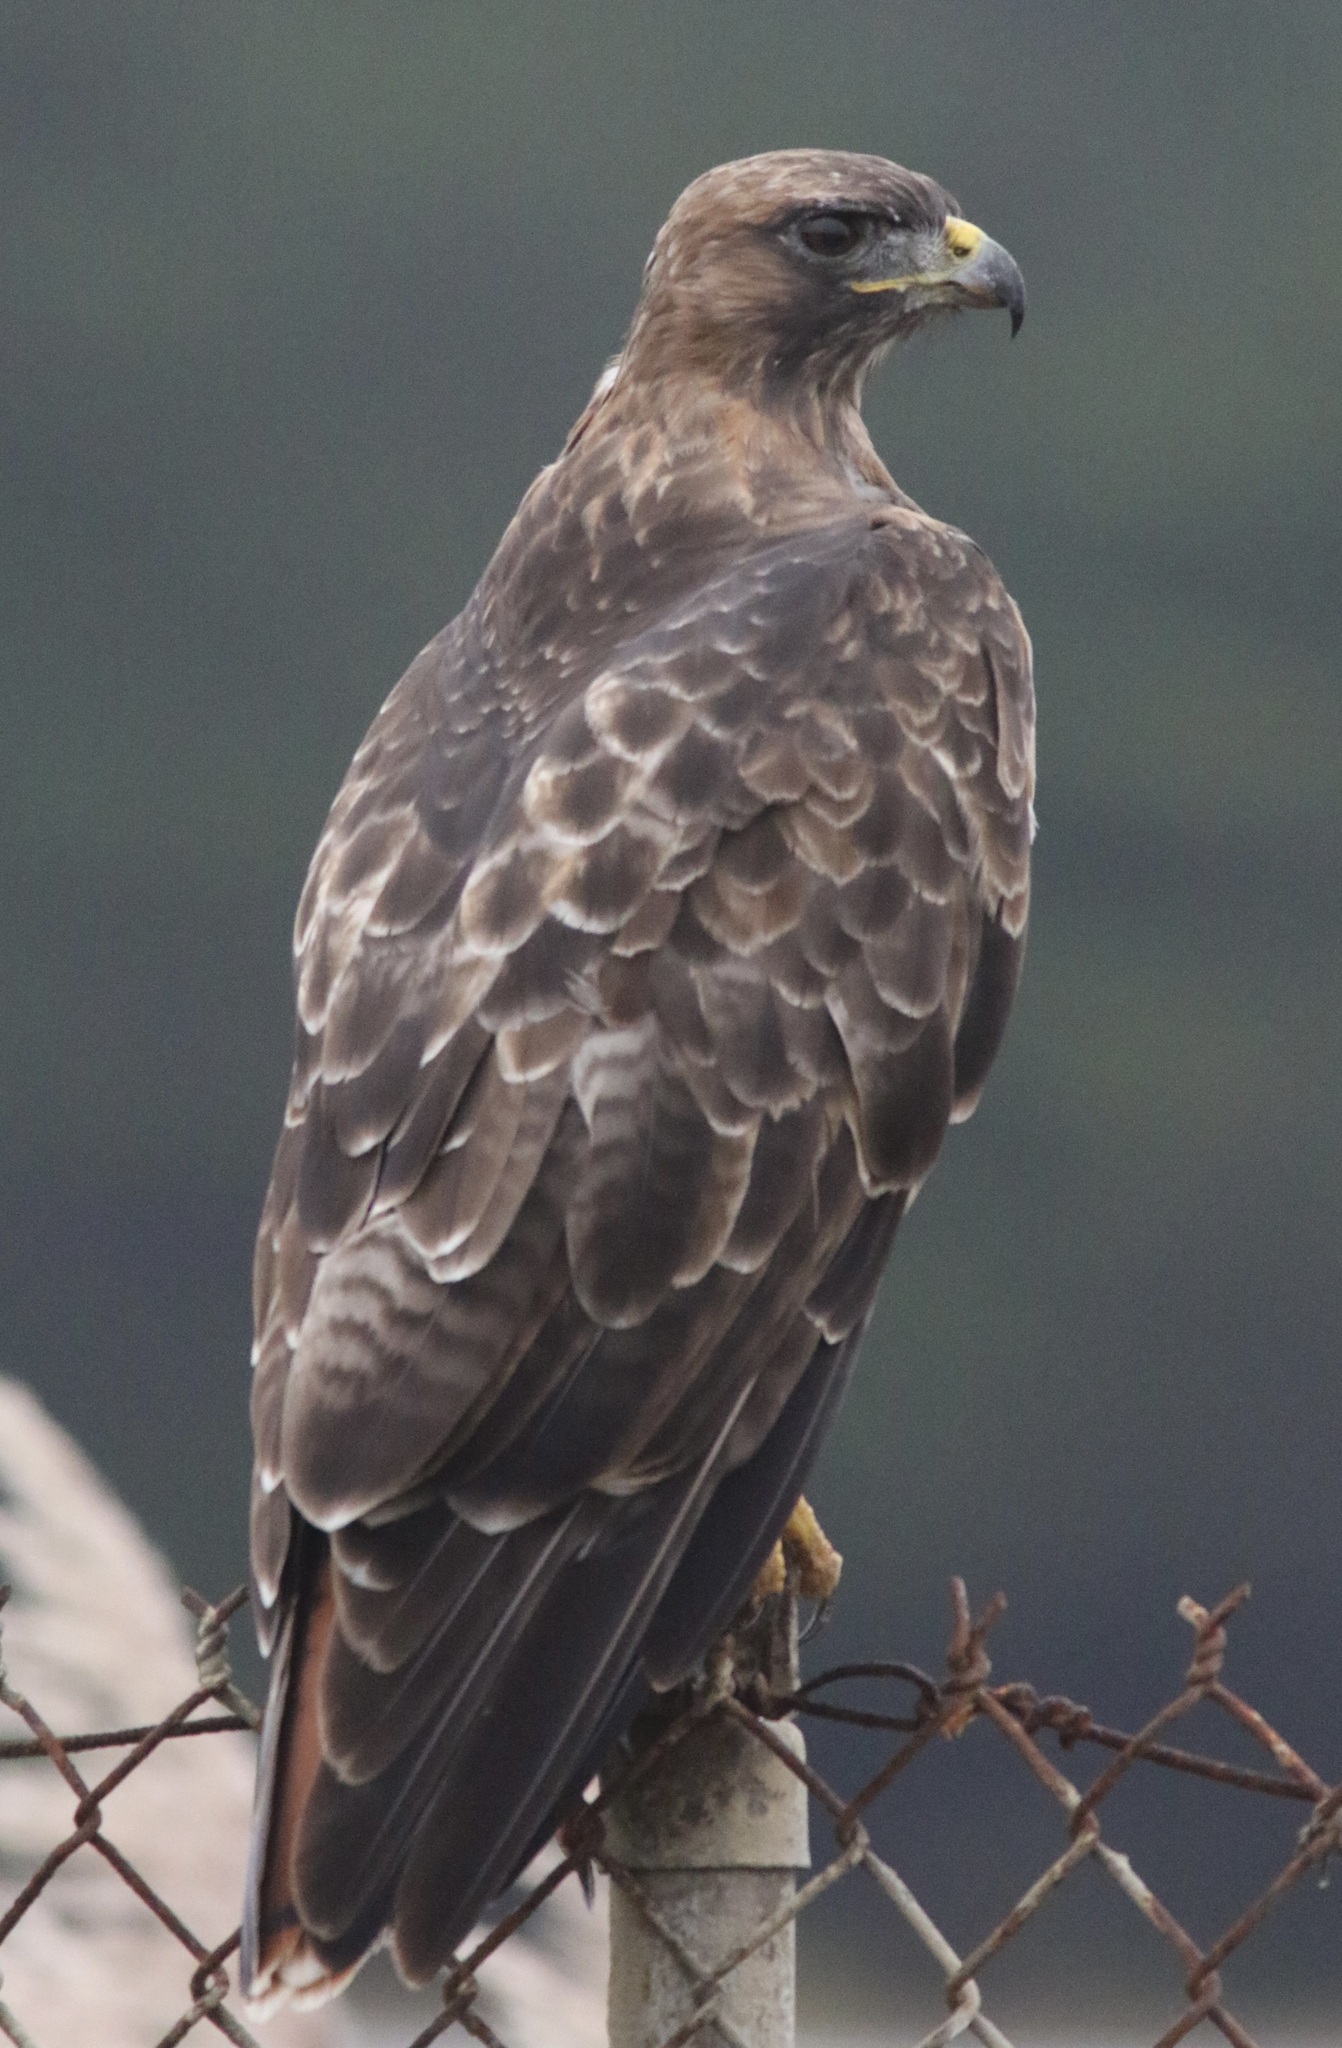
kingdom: Animalia
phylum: Chordata
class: Aves
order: Accipitriformes
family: Accipitridae
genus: Buteo
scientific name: Buteo jamaicensis
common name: Red-tailed hawk
